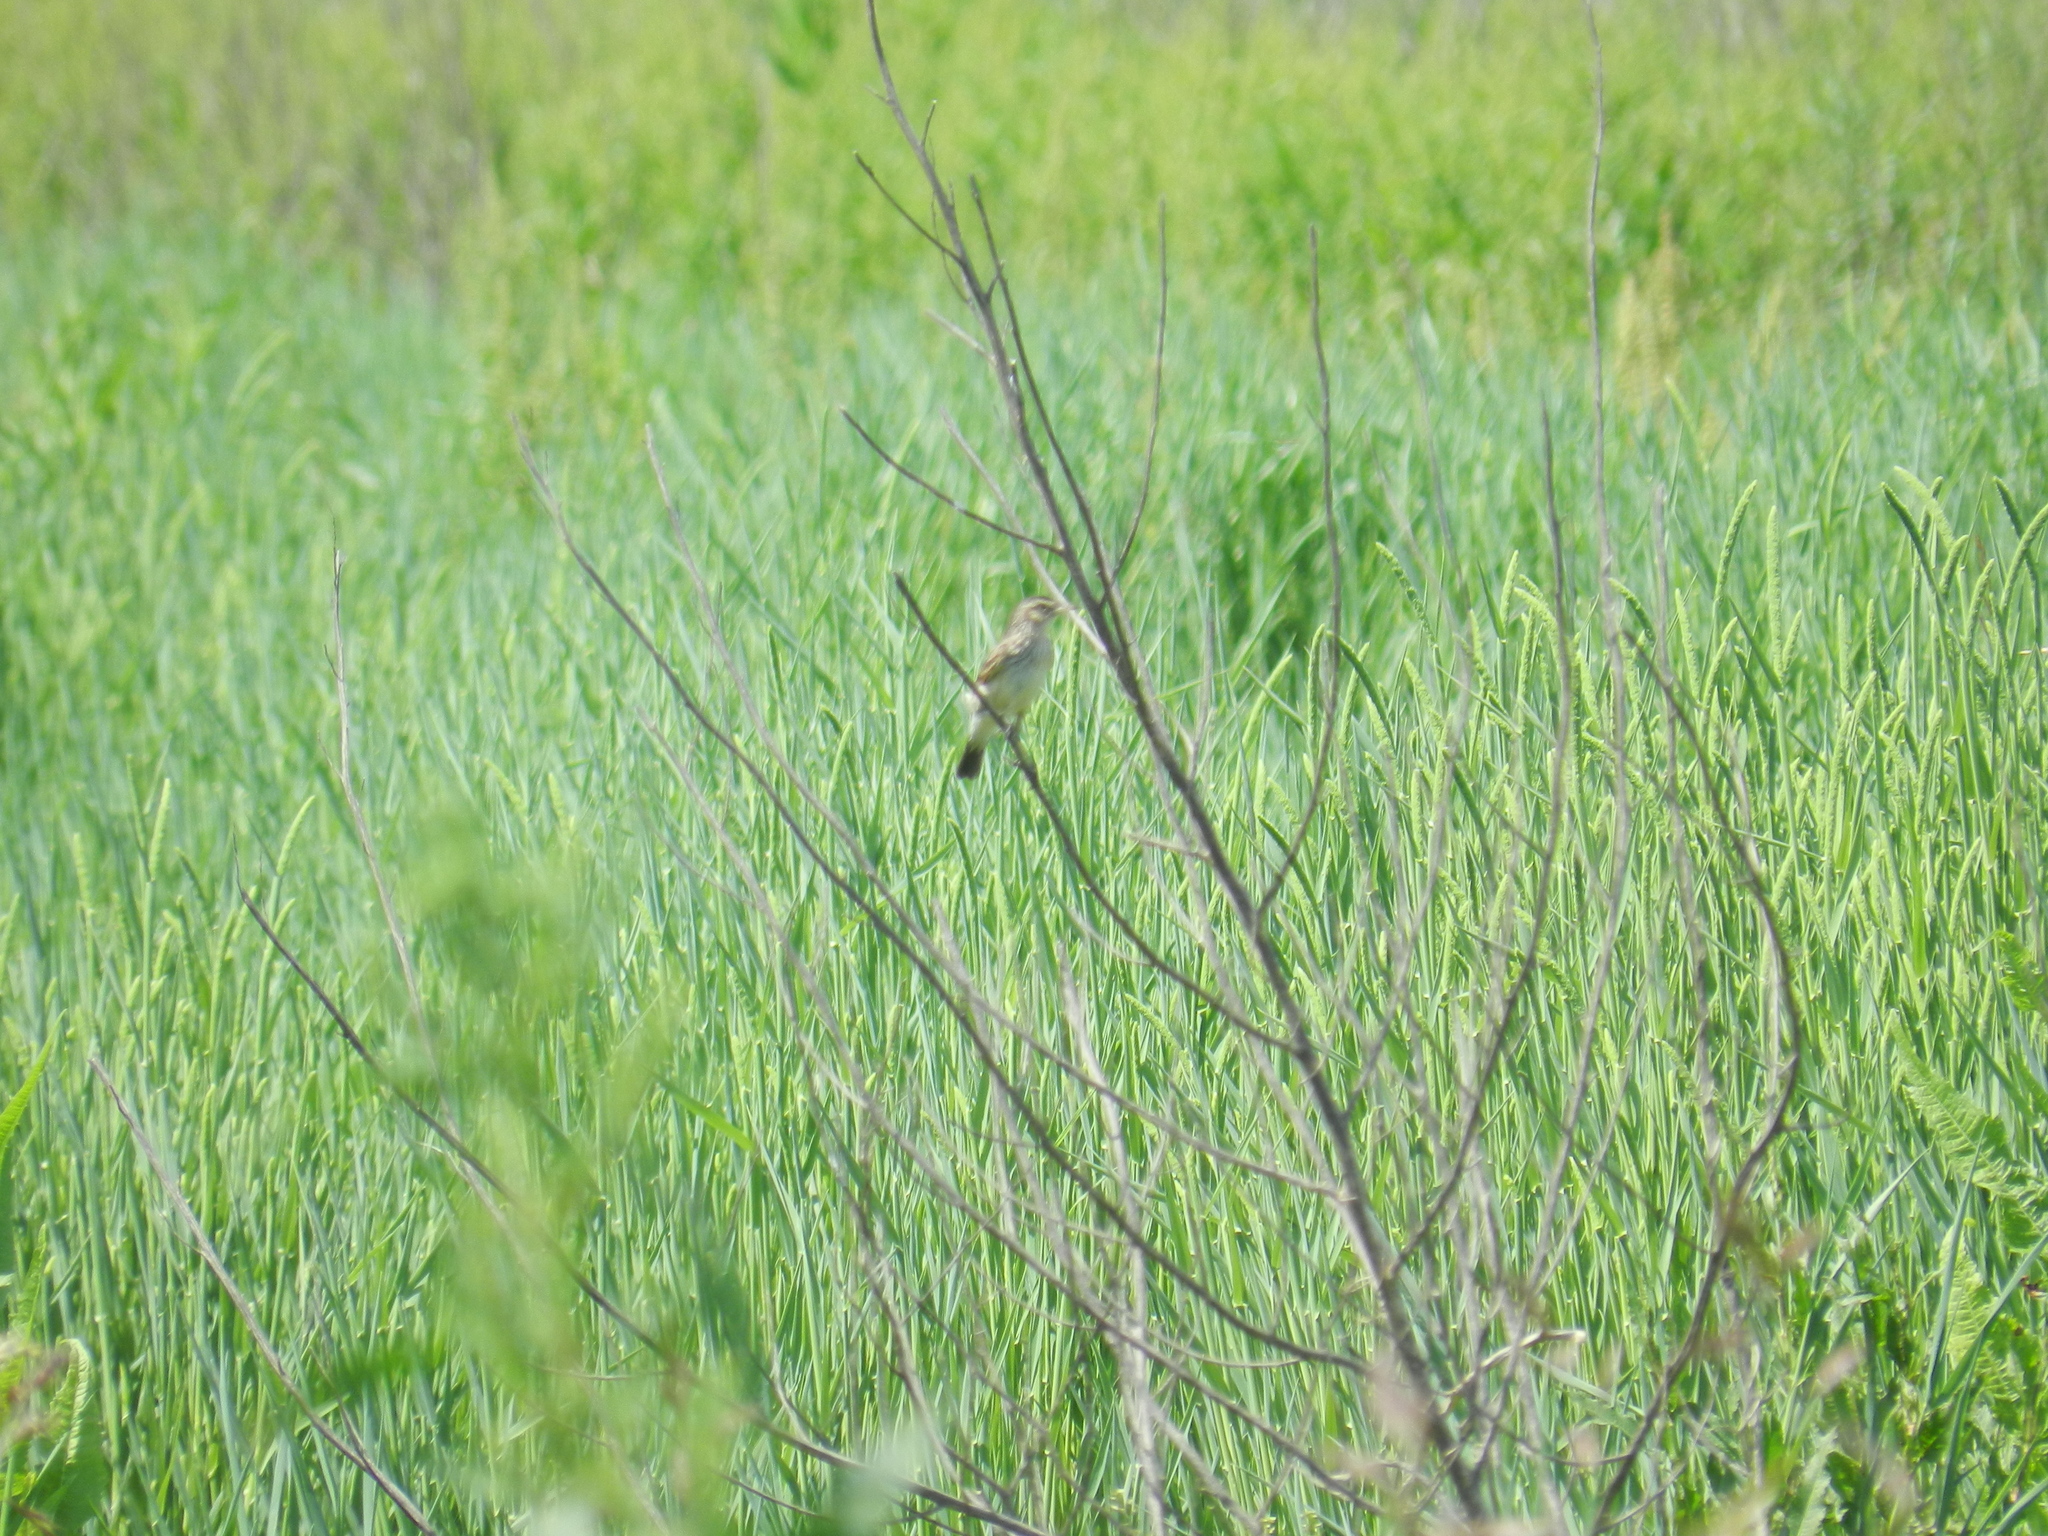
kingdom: Animalia
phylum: Chordata
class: Aves
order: Passeriformes
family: Tyrannidae
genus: Hymenops
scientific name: Hymenops perspicillatus
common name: Spectacled tyrant
